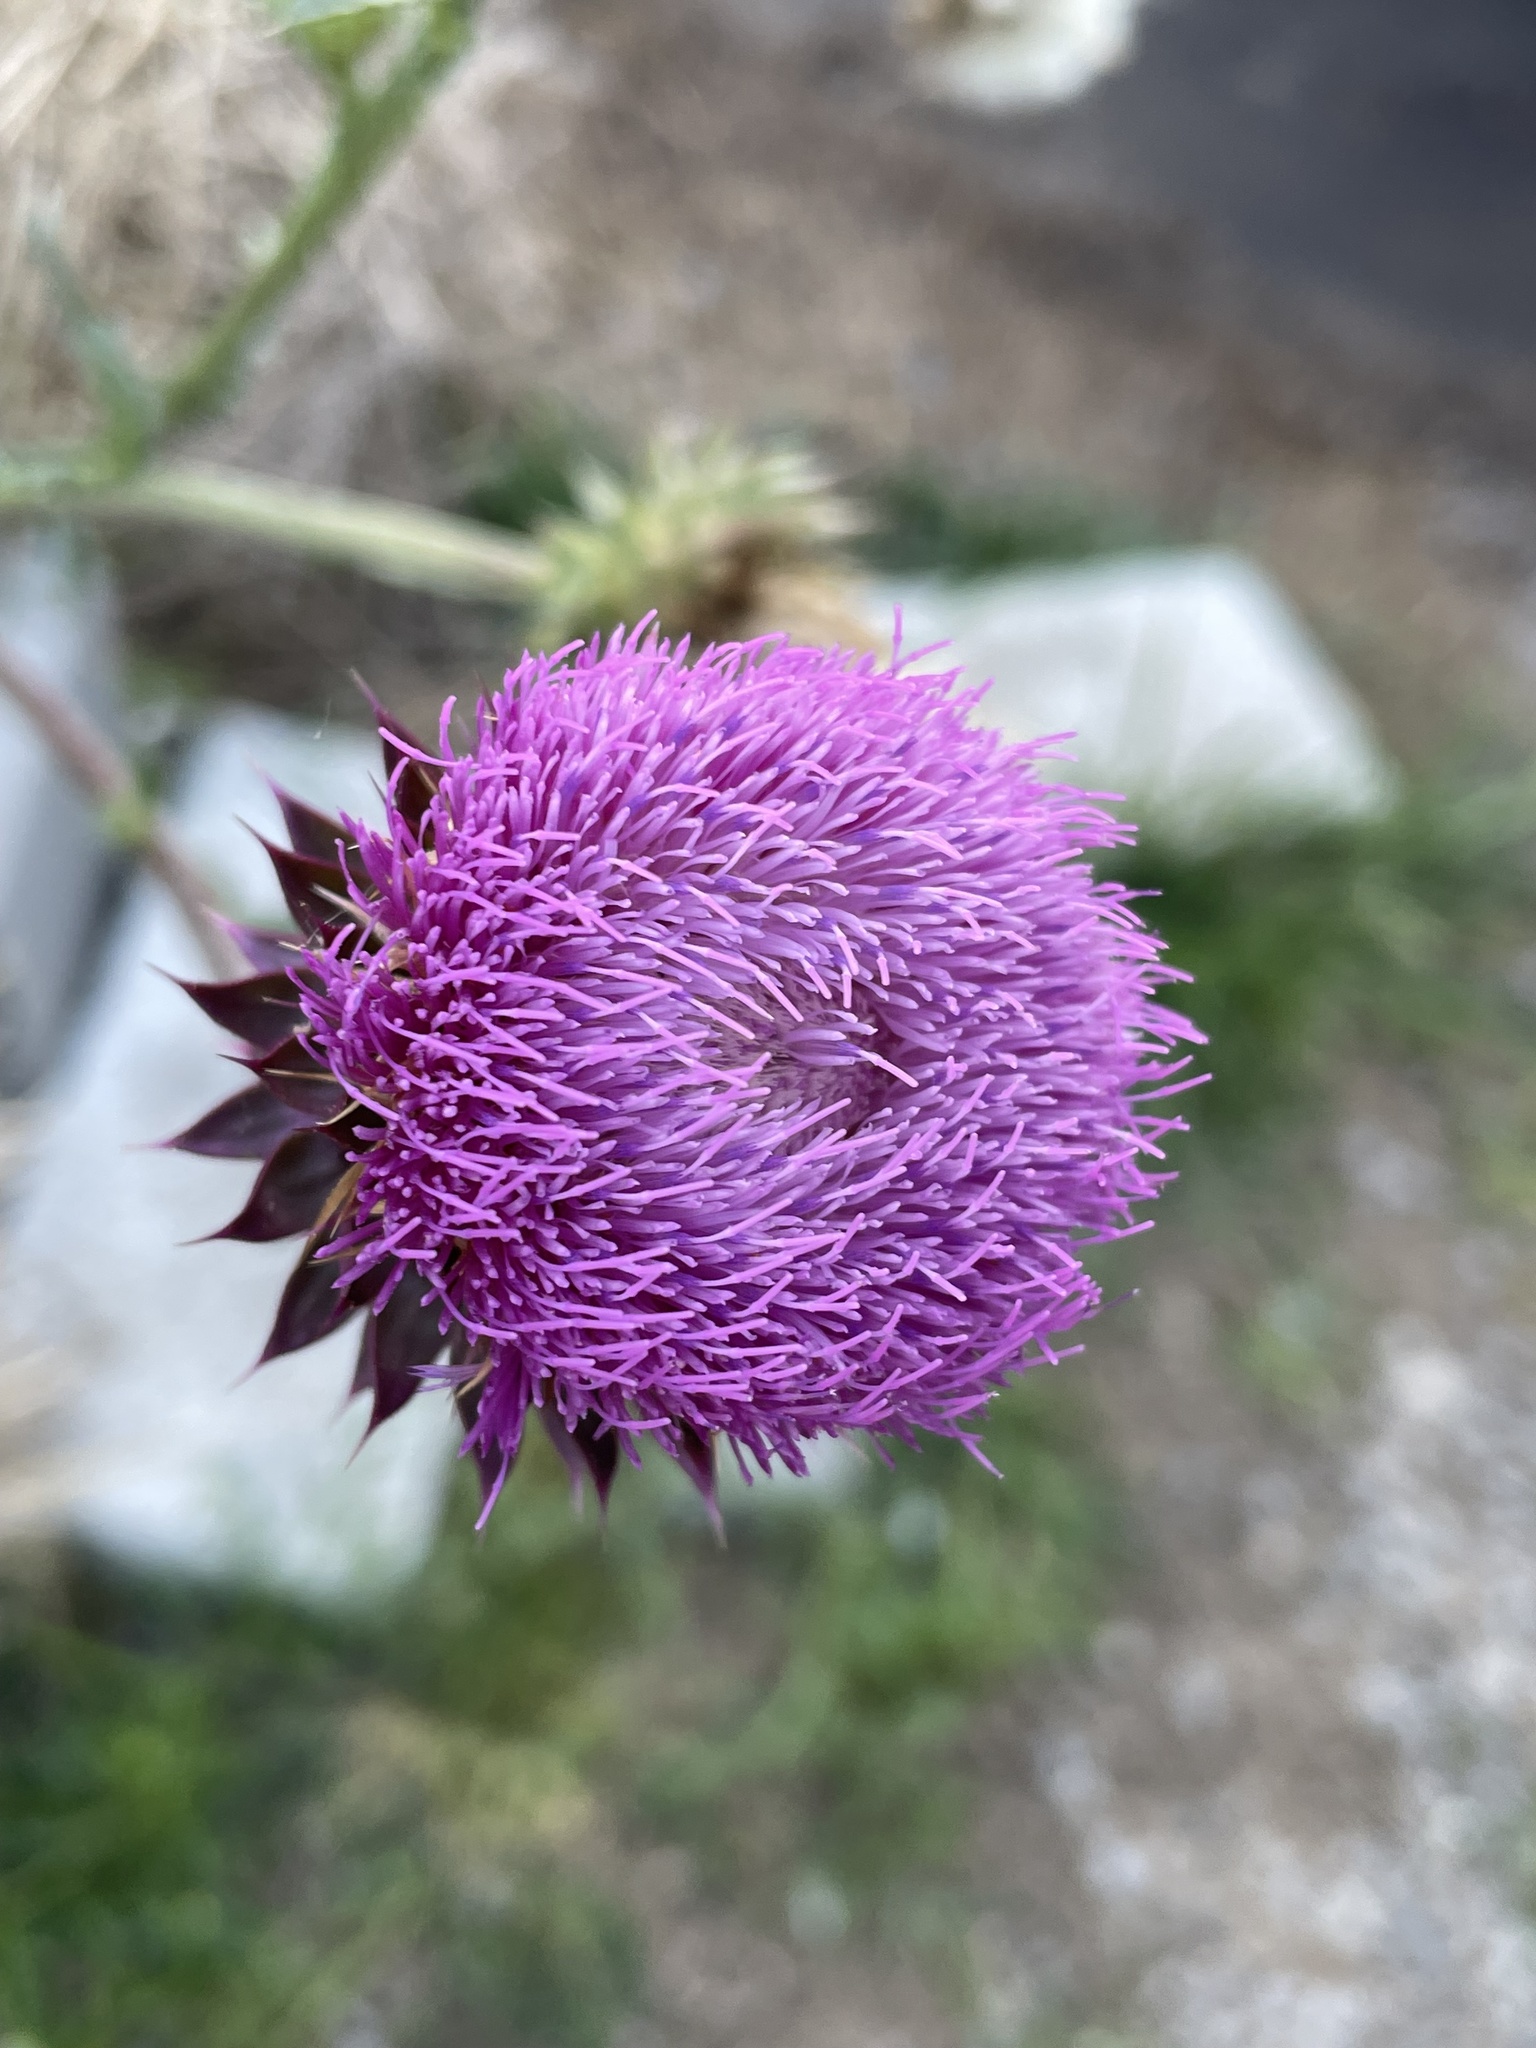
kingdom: Plantae
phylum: Tracheophyta
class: Magnoliopsida
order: Asterales
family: Asteraceae
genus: Carduus
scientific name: Carduus nutans
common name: Musk thistle
